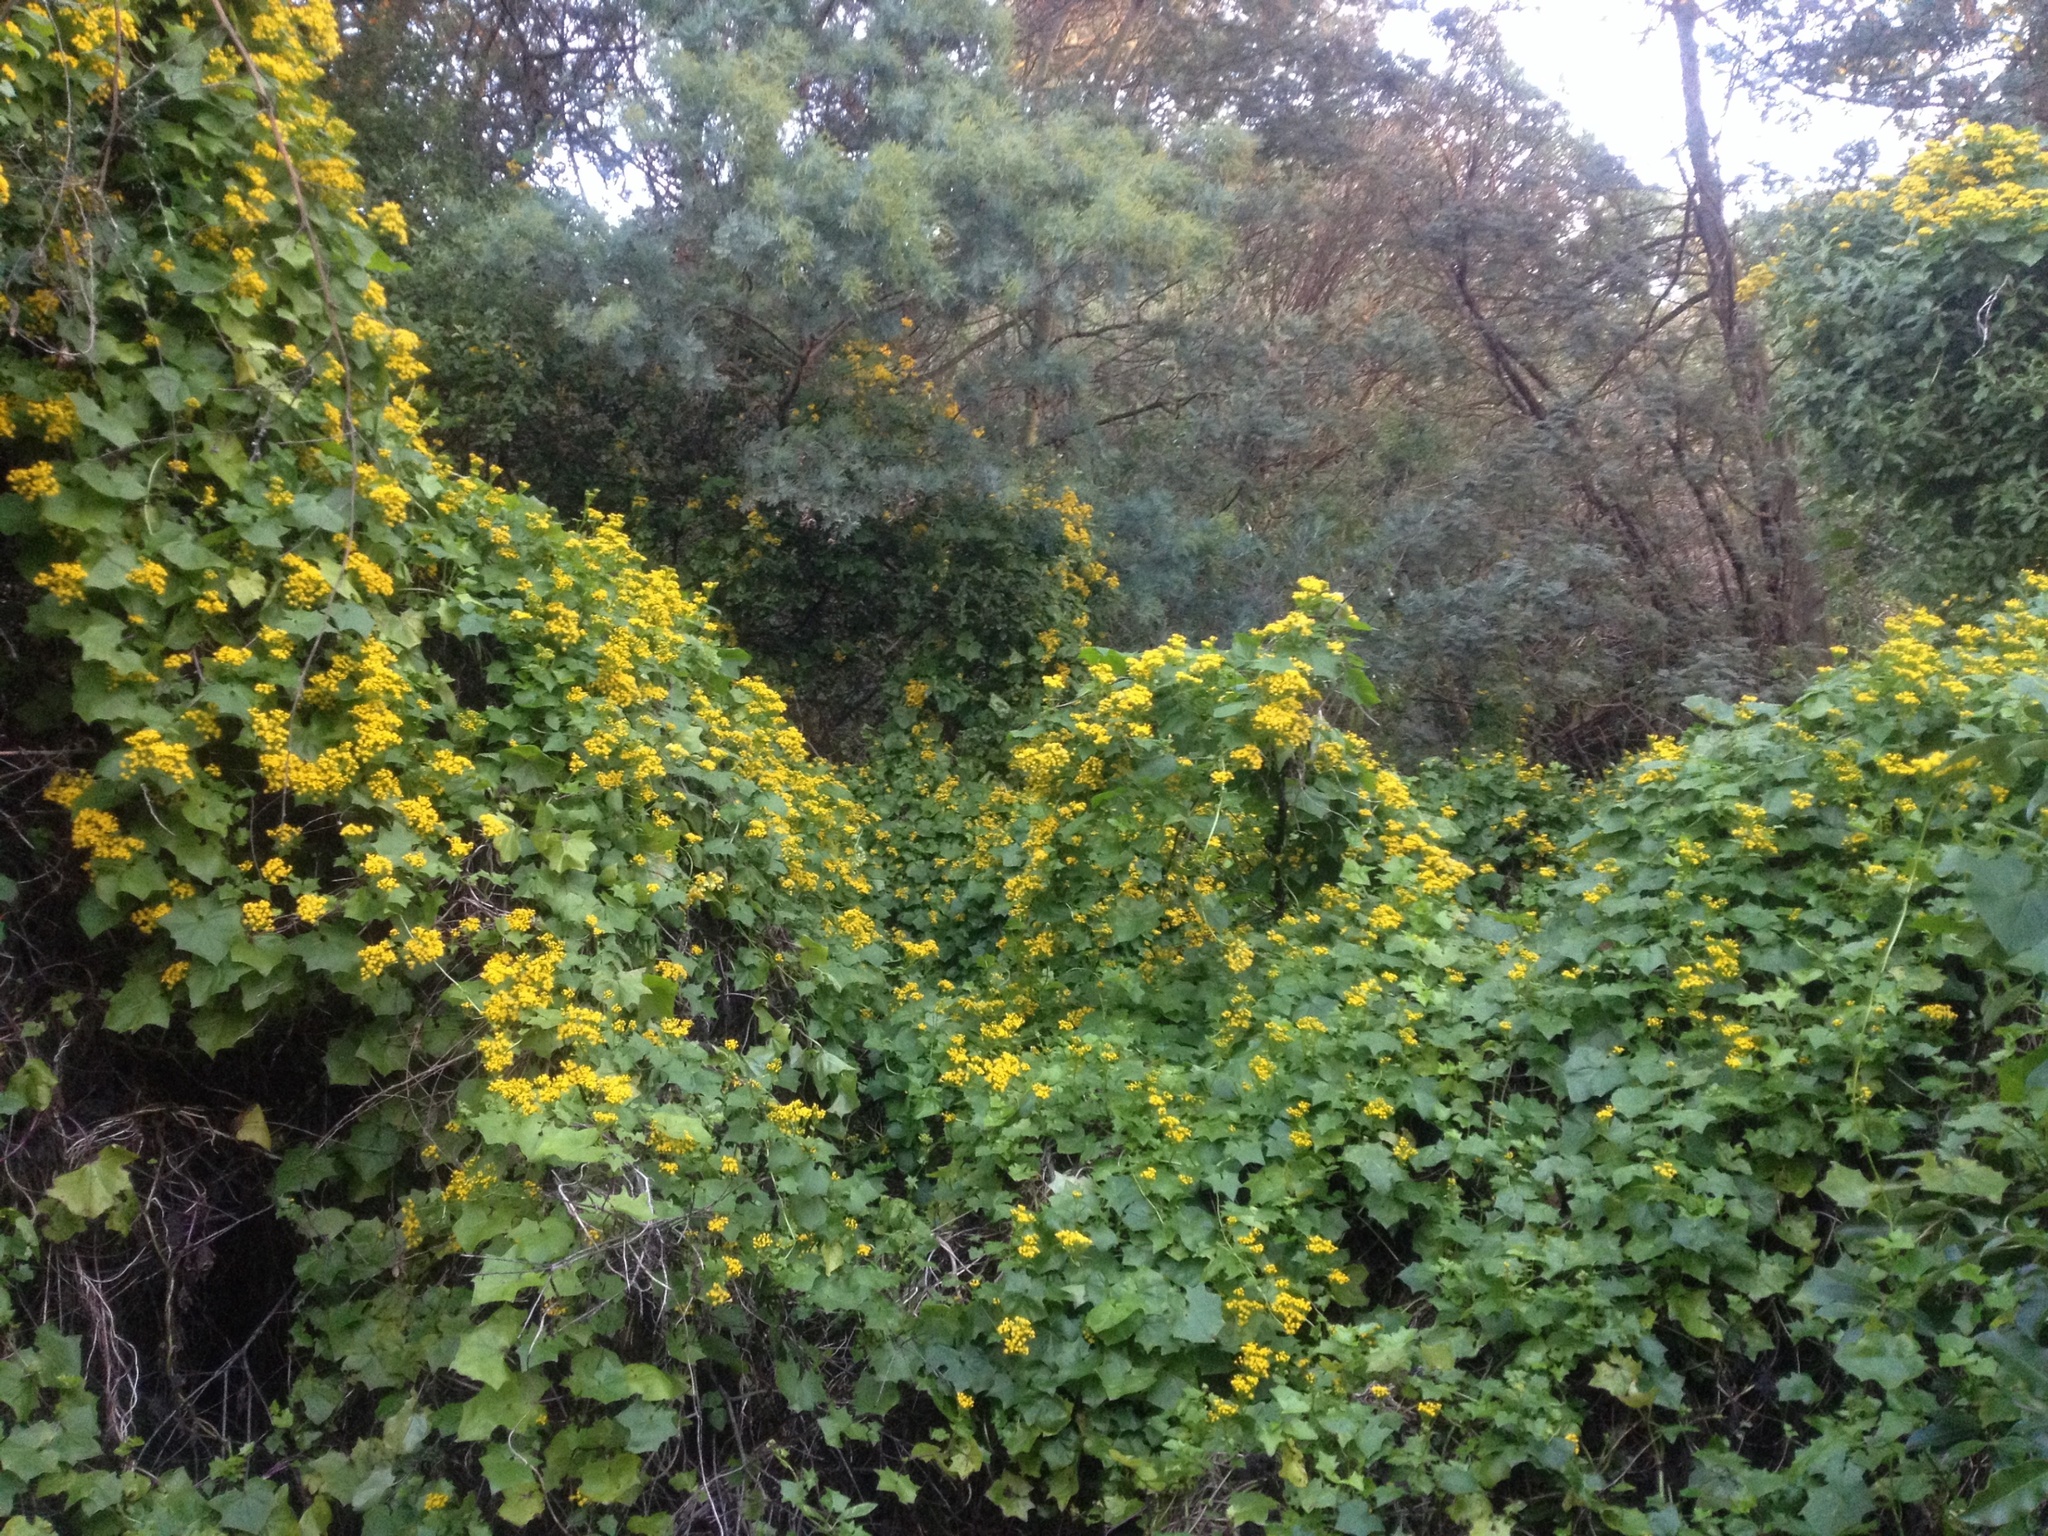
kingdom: Plantae
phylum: Tracheophyta
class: Magnoliopsida
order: Asterales
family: Asteraceae
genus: Delairea
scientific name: Delairea odorata
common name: Cape-ivy
